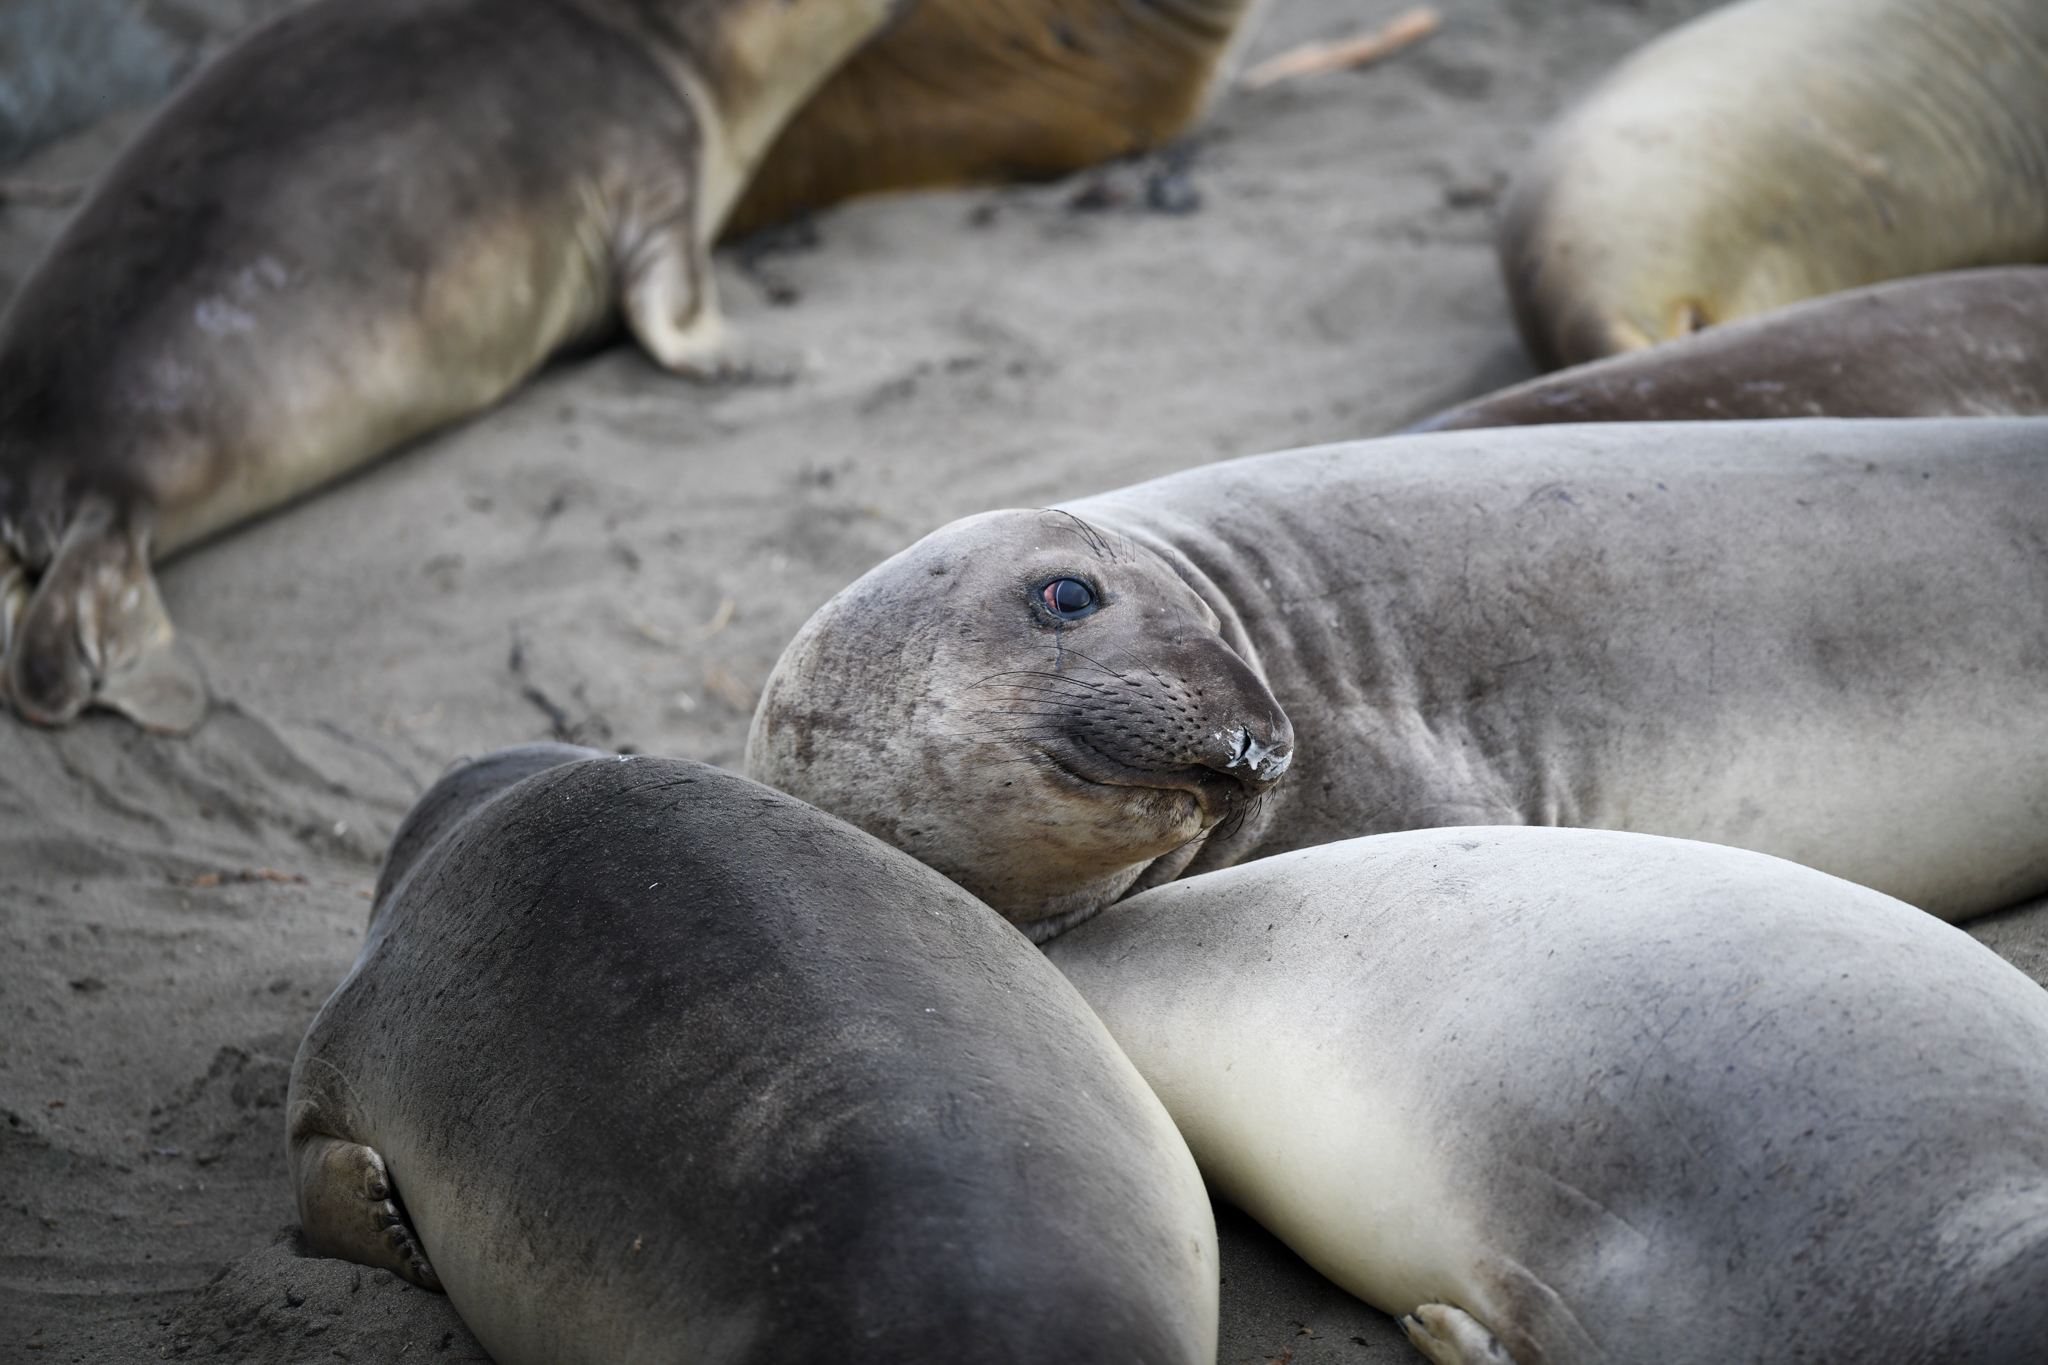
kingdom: Animalia
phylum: Chordata
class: Mammalia
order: Carnivora
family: Phocidae
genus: Mirounga
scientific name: Mirounga angustirostris
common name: Northern elephant seal
